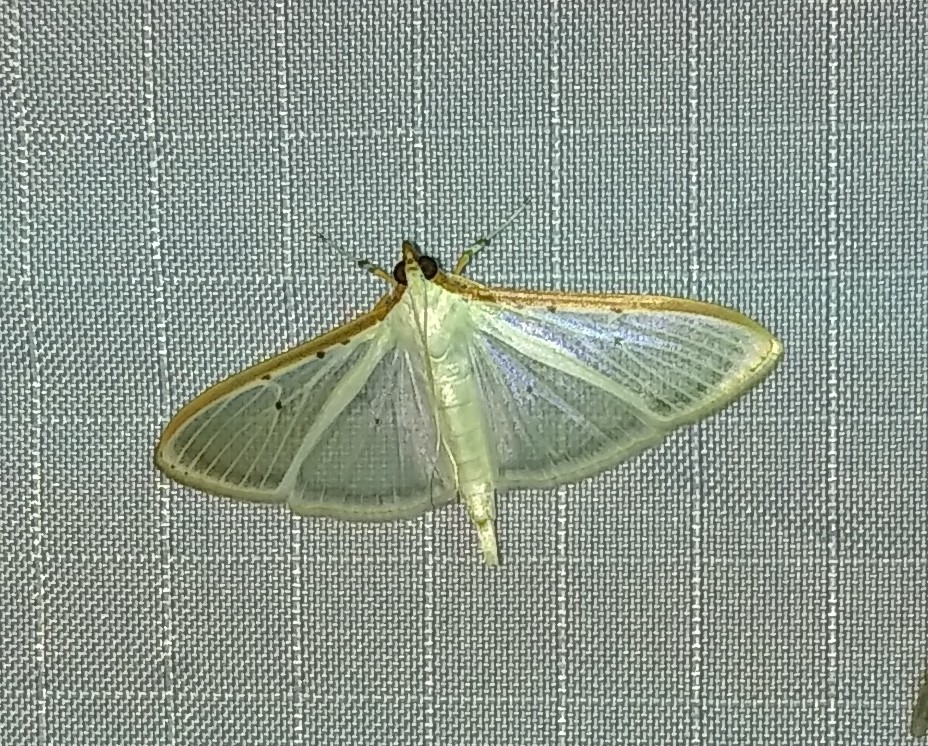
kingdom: Animalia
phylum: Arthropoda
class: Insecta
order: Lepidoptera
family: Crambidae
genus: Palpita
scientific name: Palpita quadristigmalis
